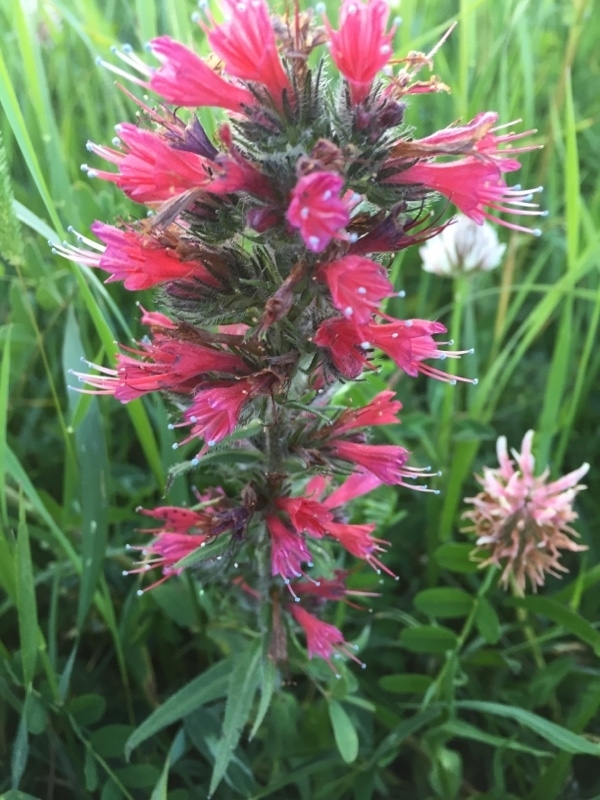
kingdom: Plantae
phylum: Tracheophyta
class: Magnoliopsida
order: Boraginales
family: Boraginaceae
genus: Pontechium
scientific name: Pontechium maculatum
